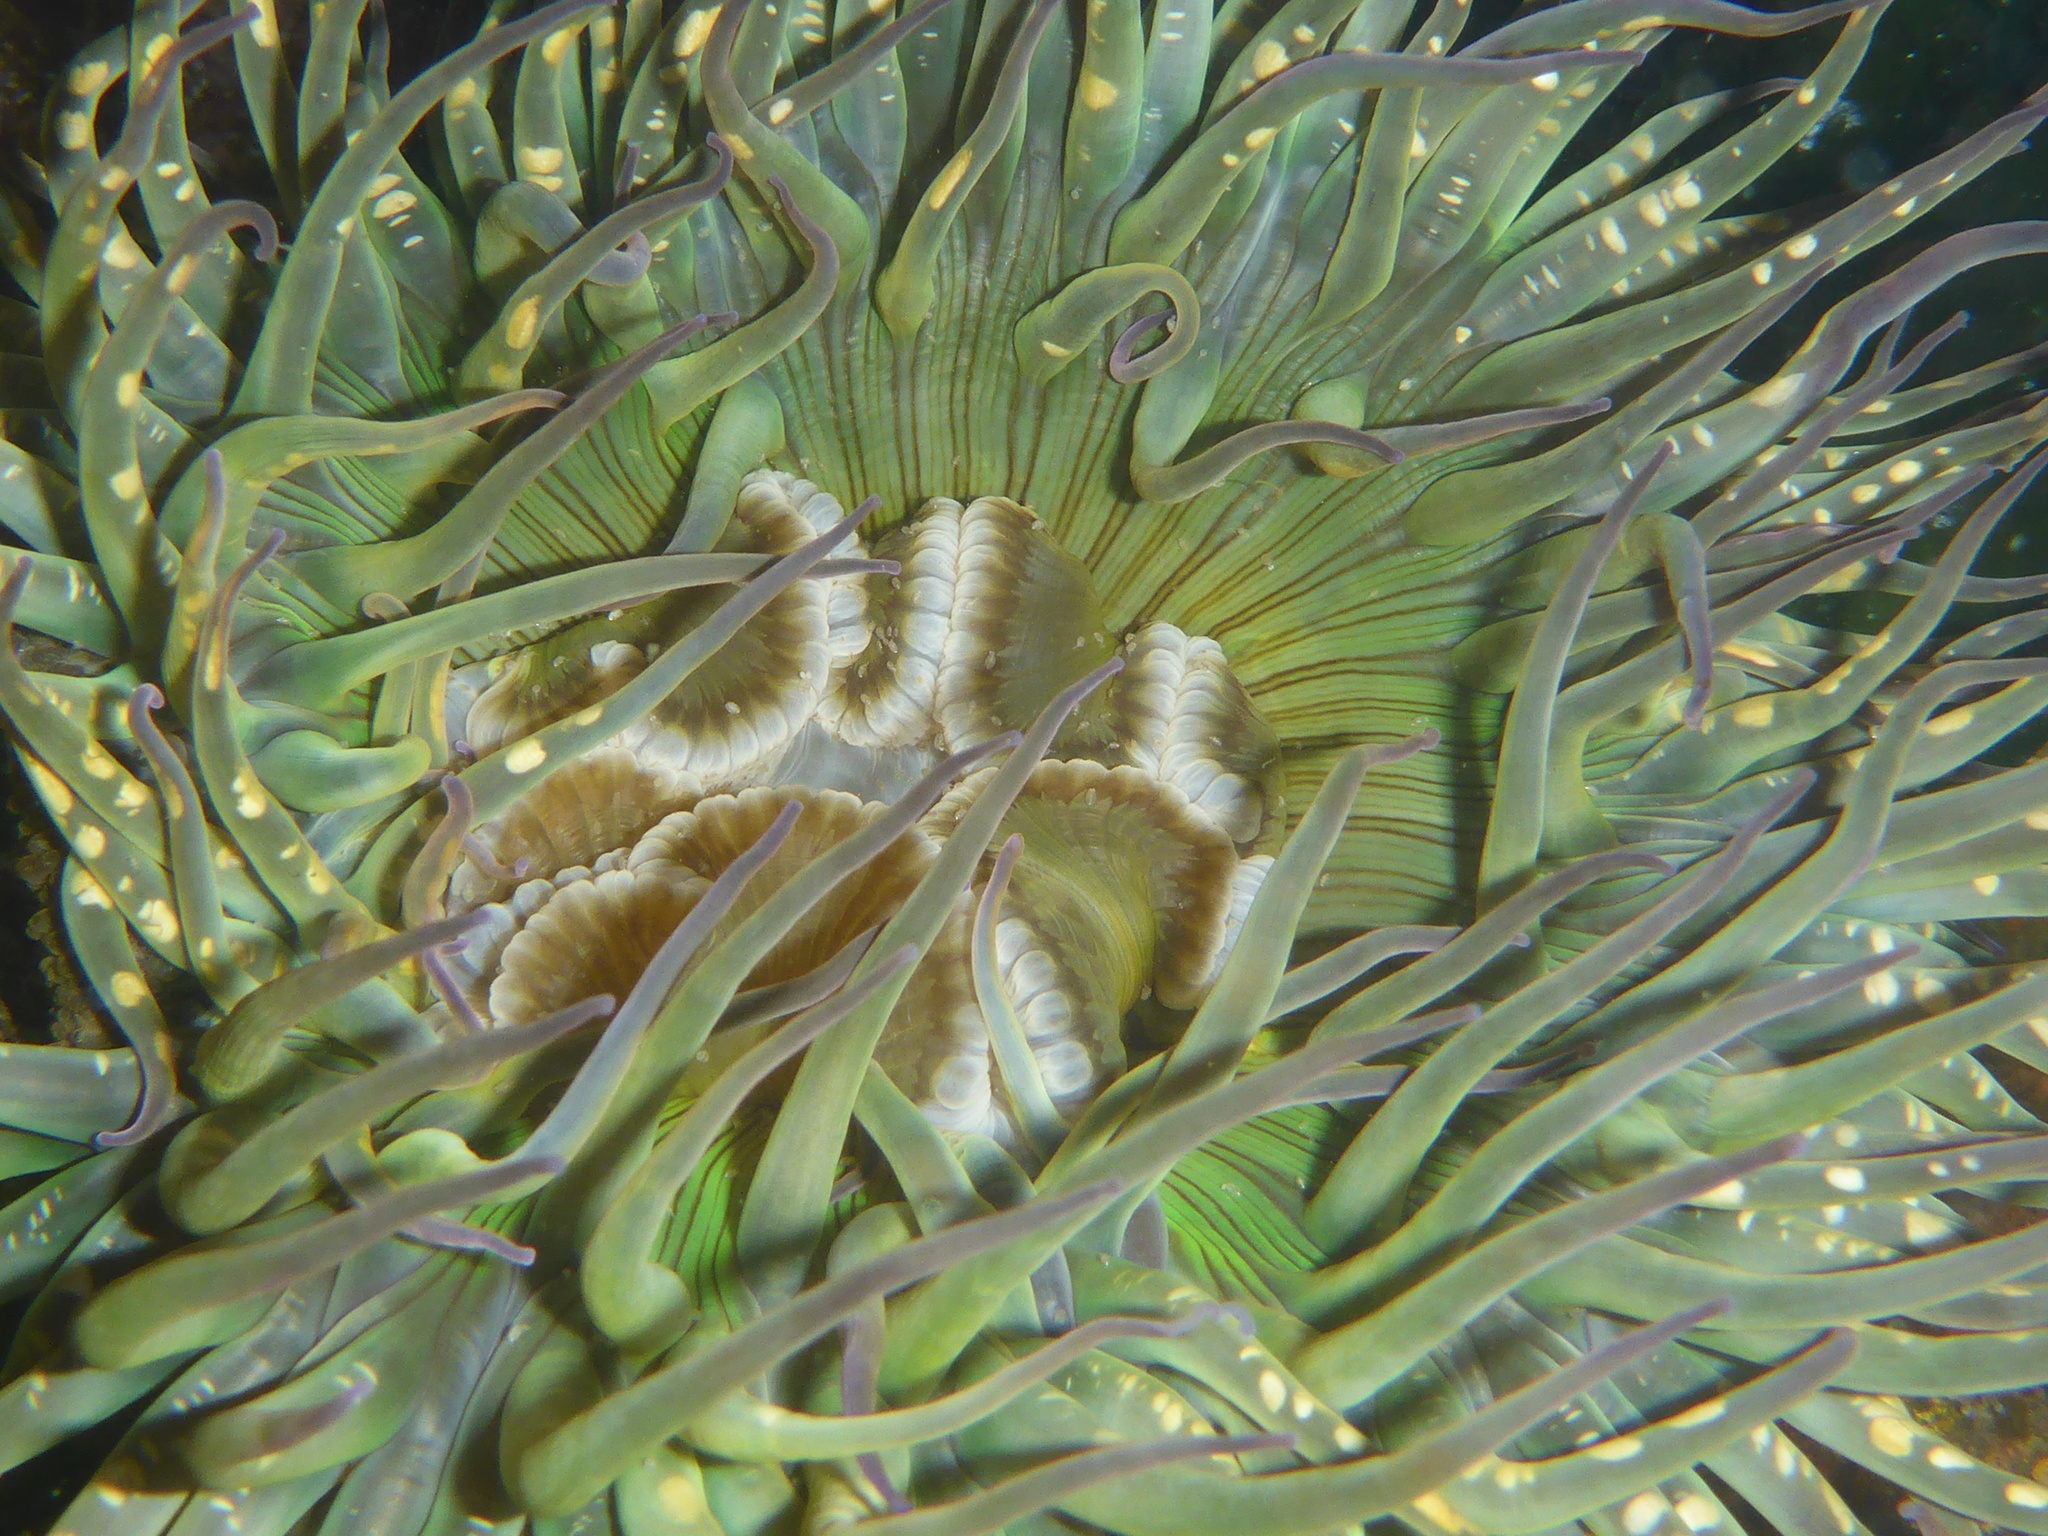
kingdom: Animalia
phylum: Cnidaria
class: Anthozoa
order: Actiniaria
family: Actiniidae
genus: Anthopleura
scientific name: Anthopleura sola
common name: Sun anemone
